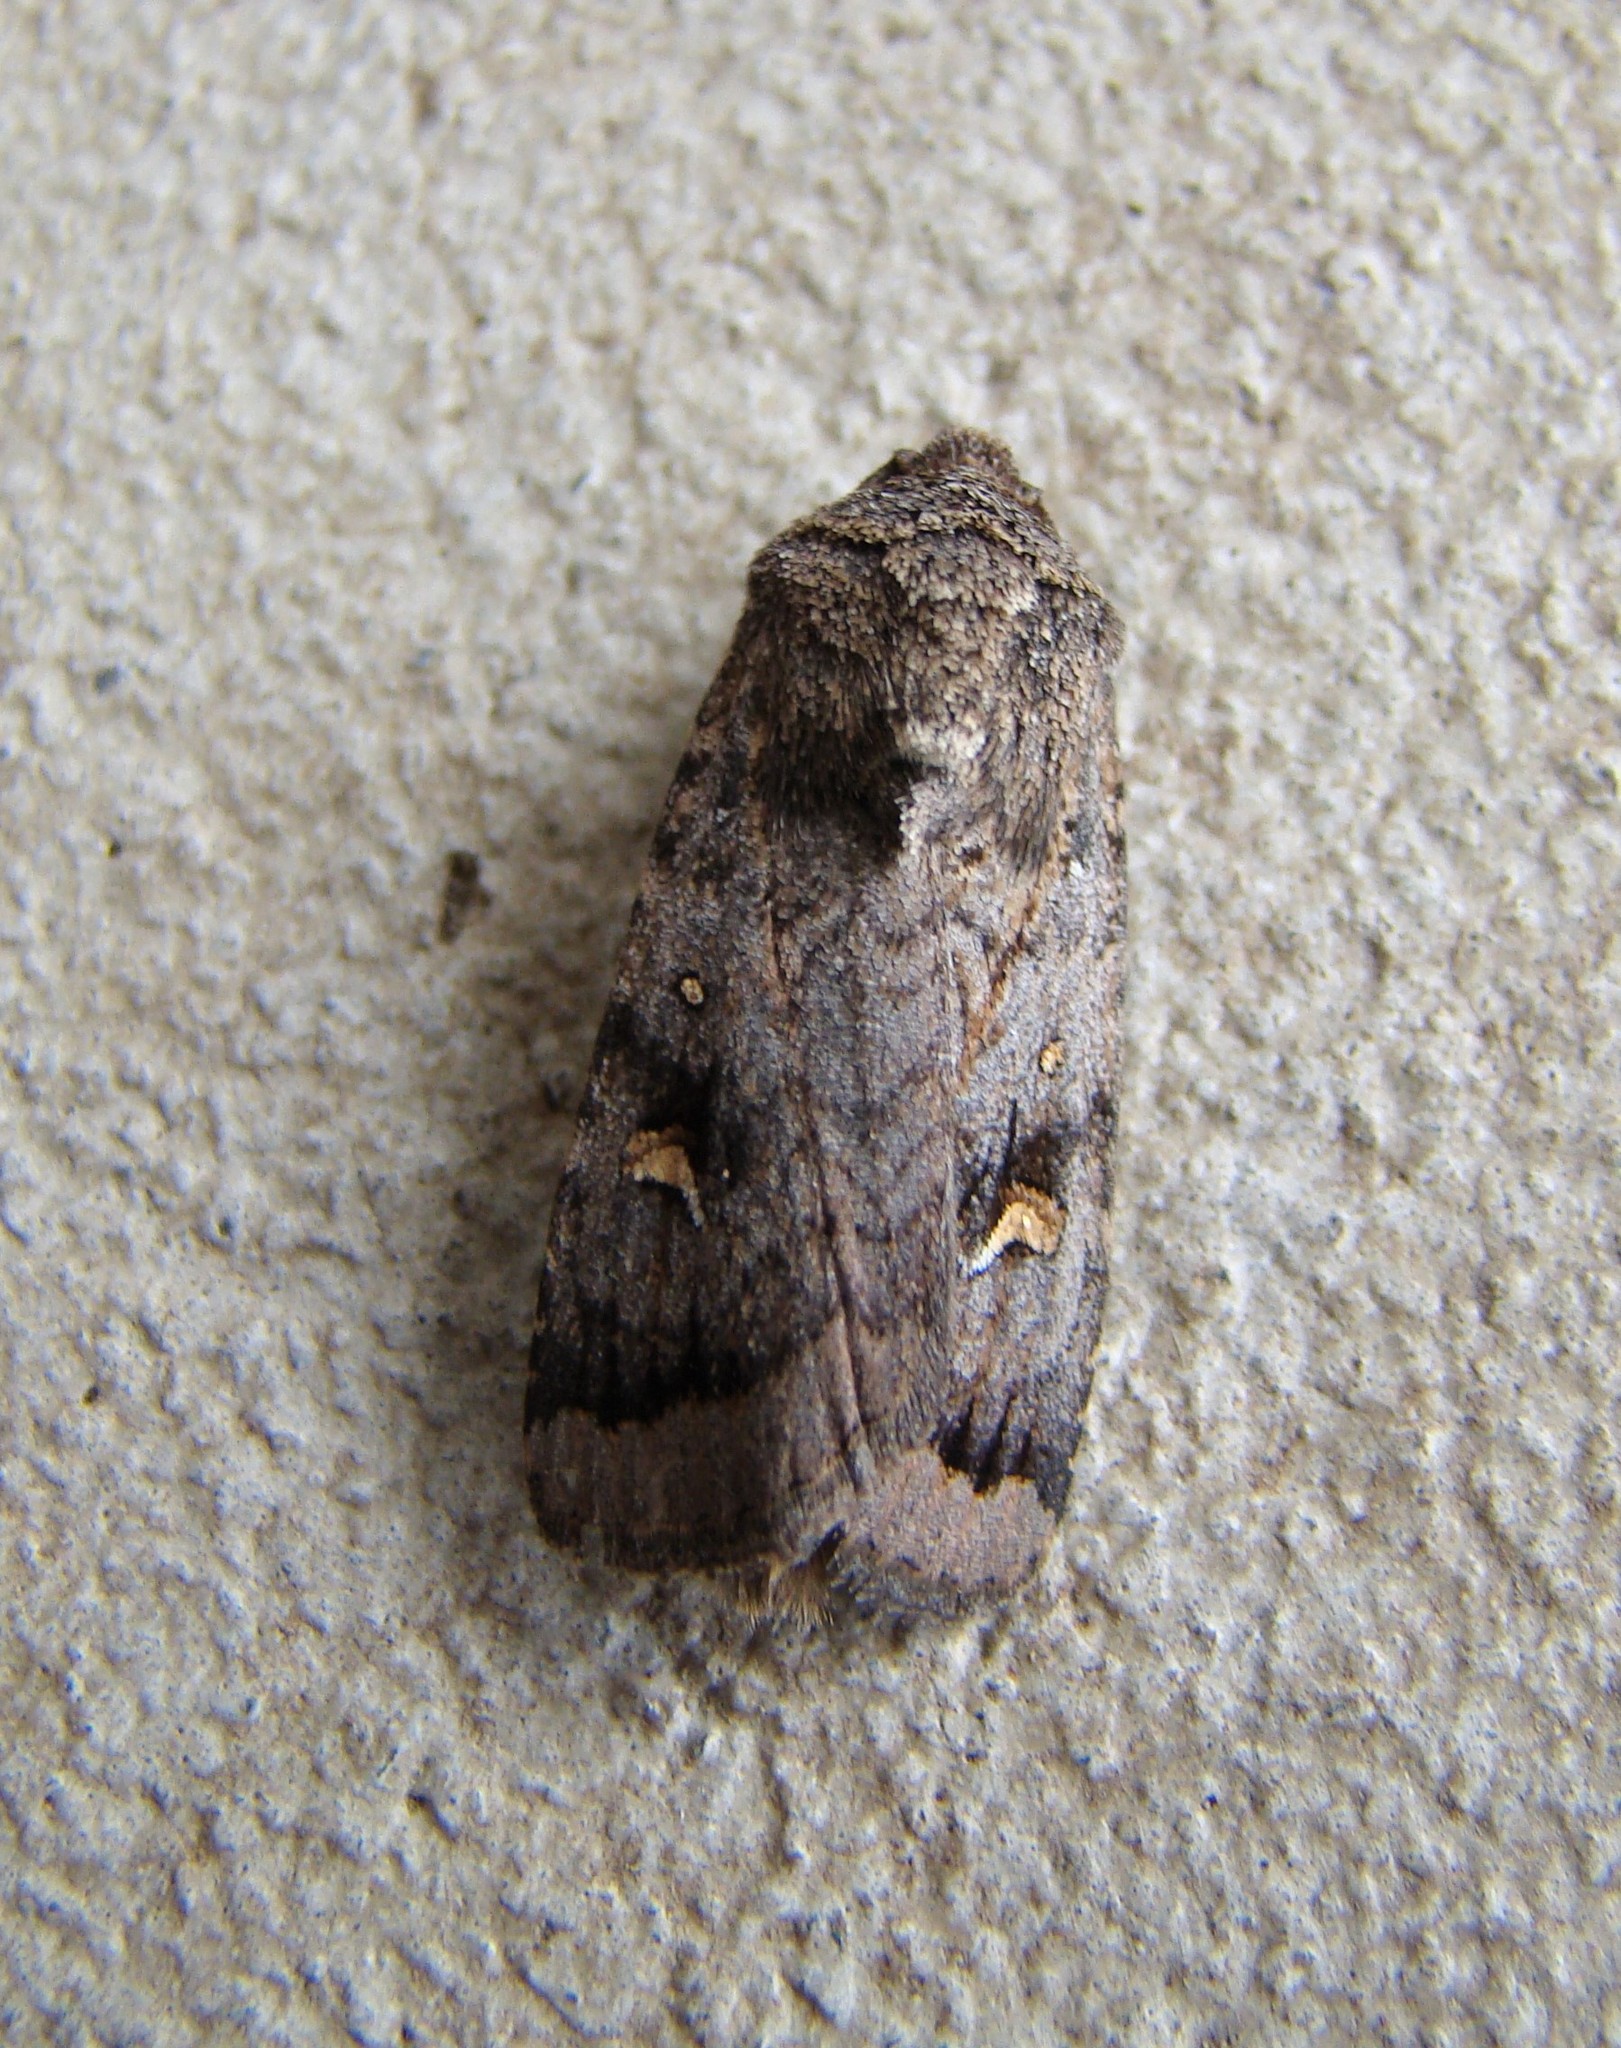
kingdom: Animalia
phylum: Arthropoda
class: Insecta
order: Lepidoptera
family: Noctuidae
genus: Proteuxoa
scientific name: Proteuxoa comma
